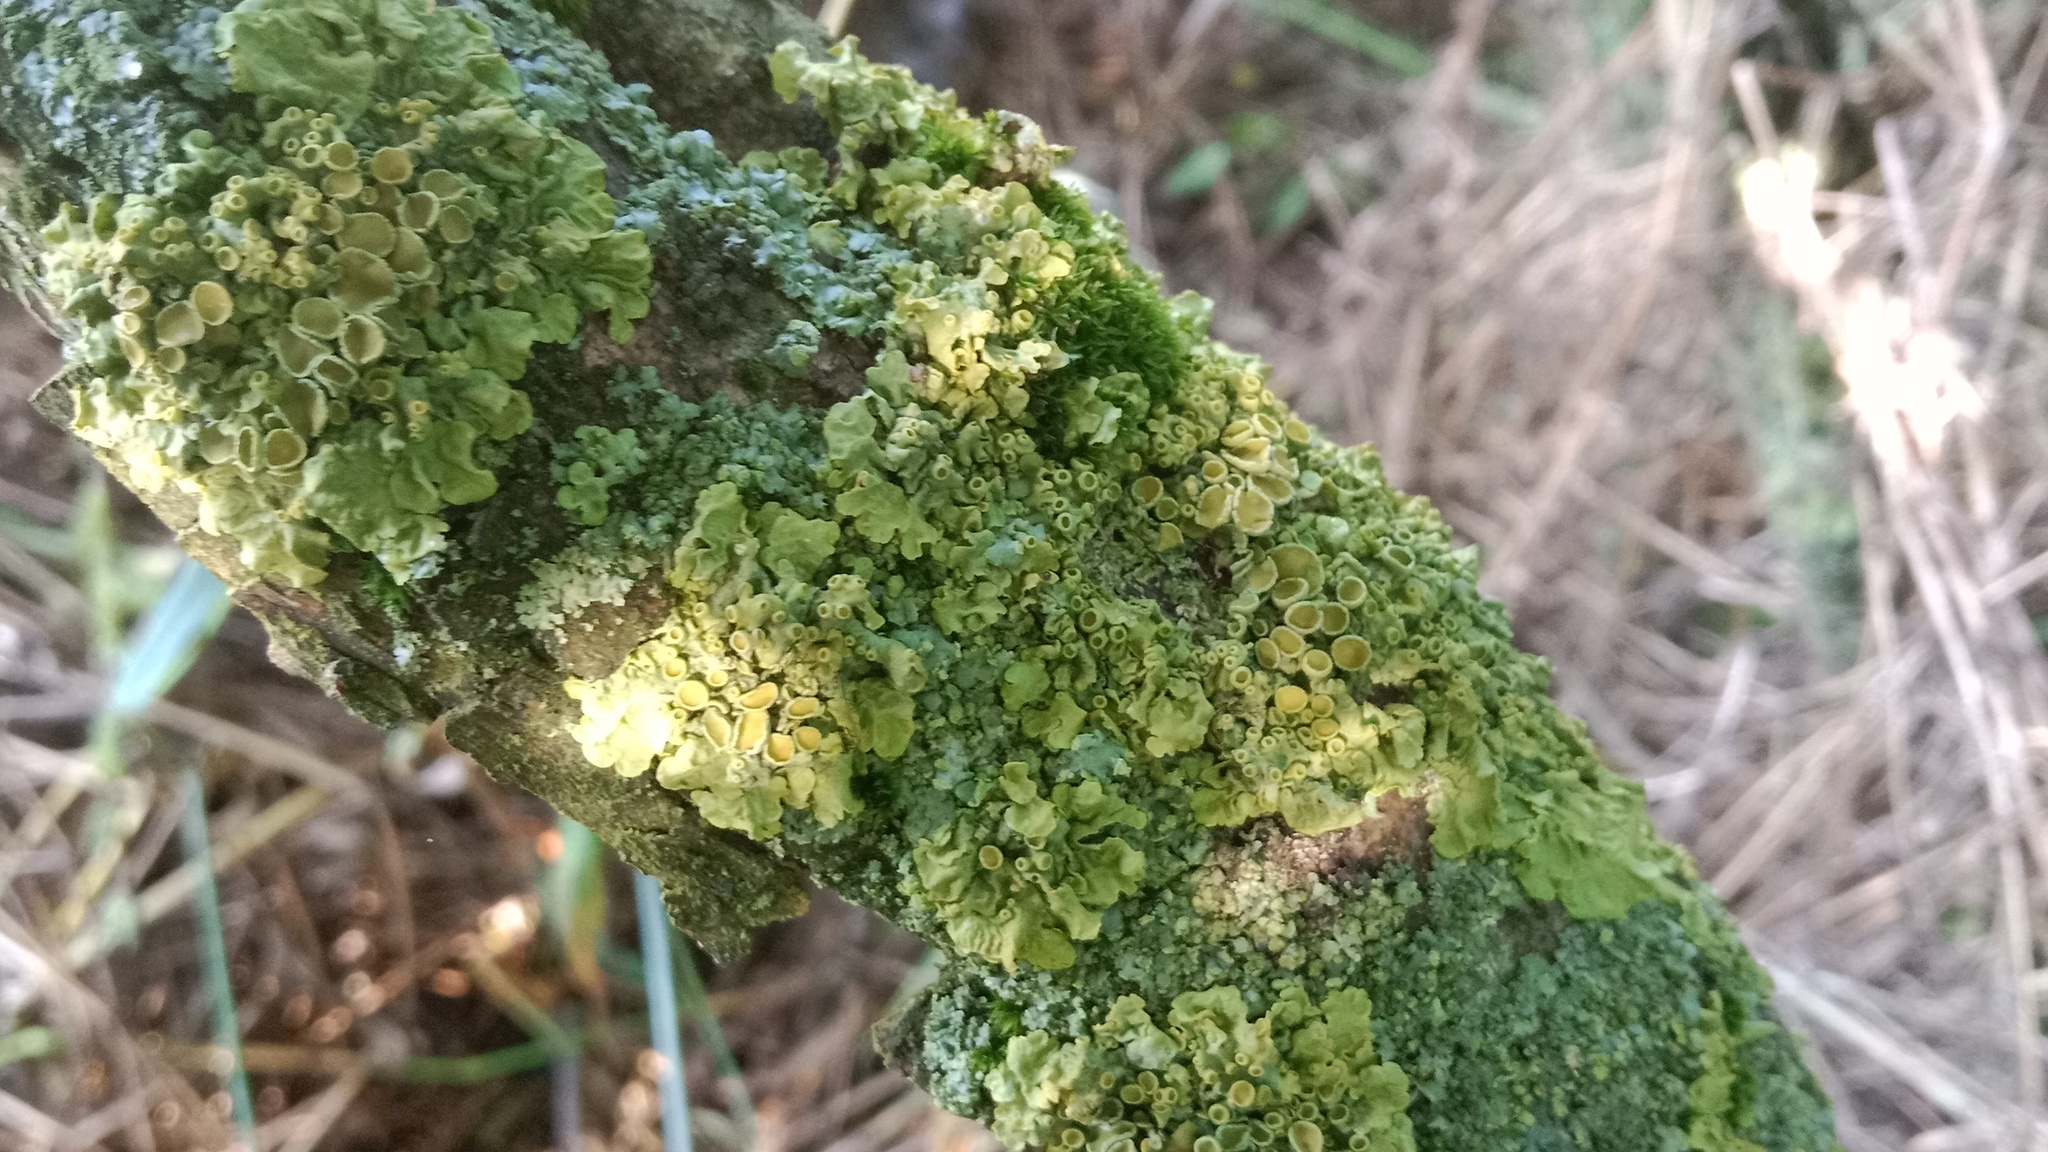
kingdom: Fungi
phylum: Ascomycota
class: Lecanoromycetes
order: Teloschistales
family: Teloschistaceae
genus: Xanthoria
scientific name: Xanthoria parietina
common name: Common orange lichen
